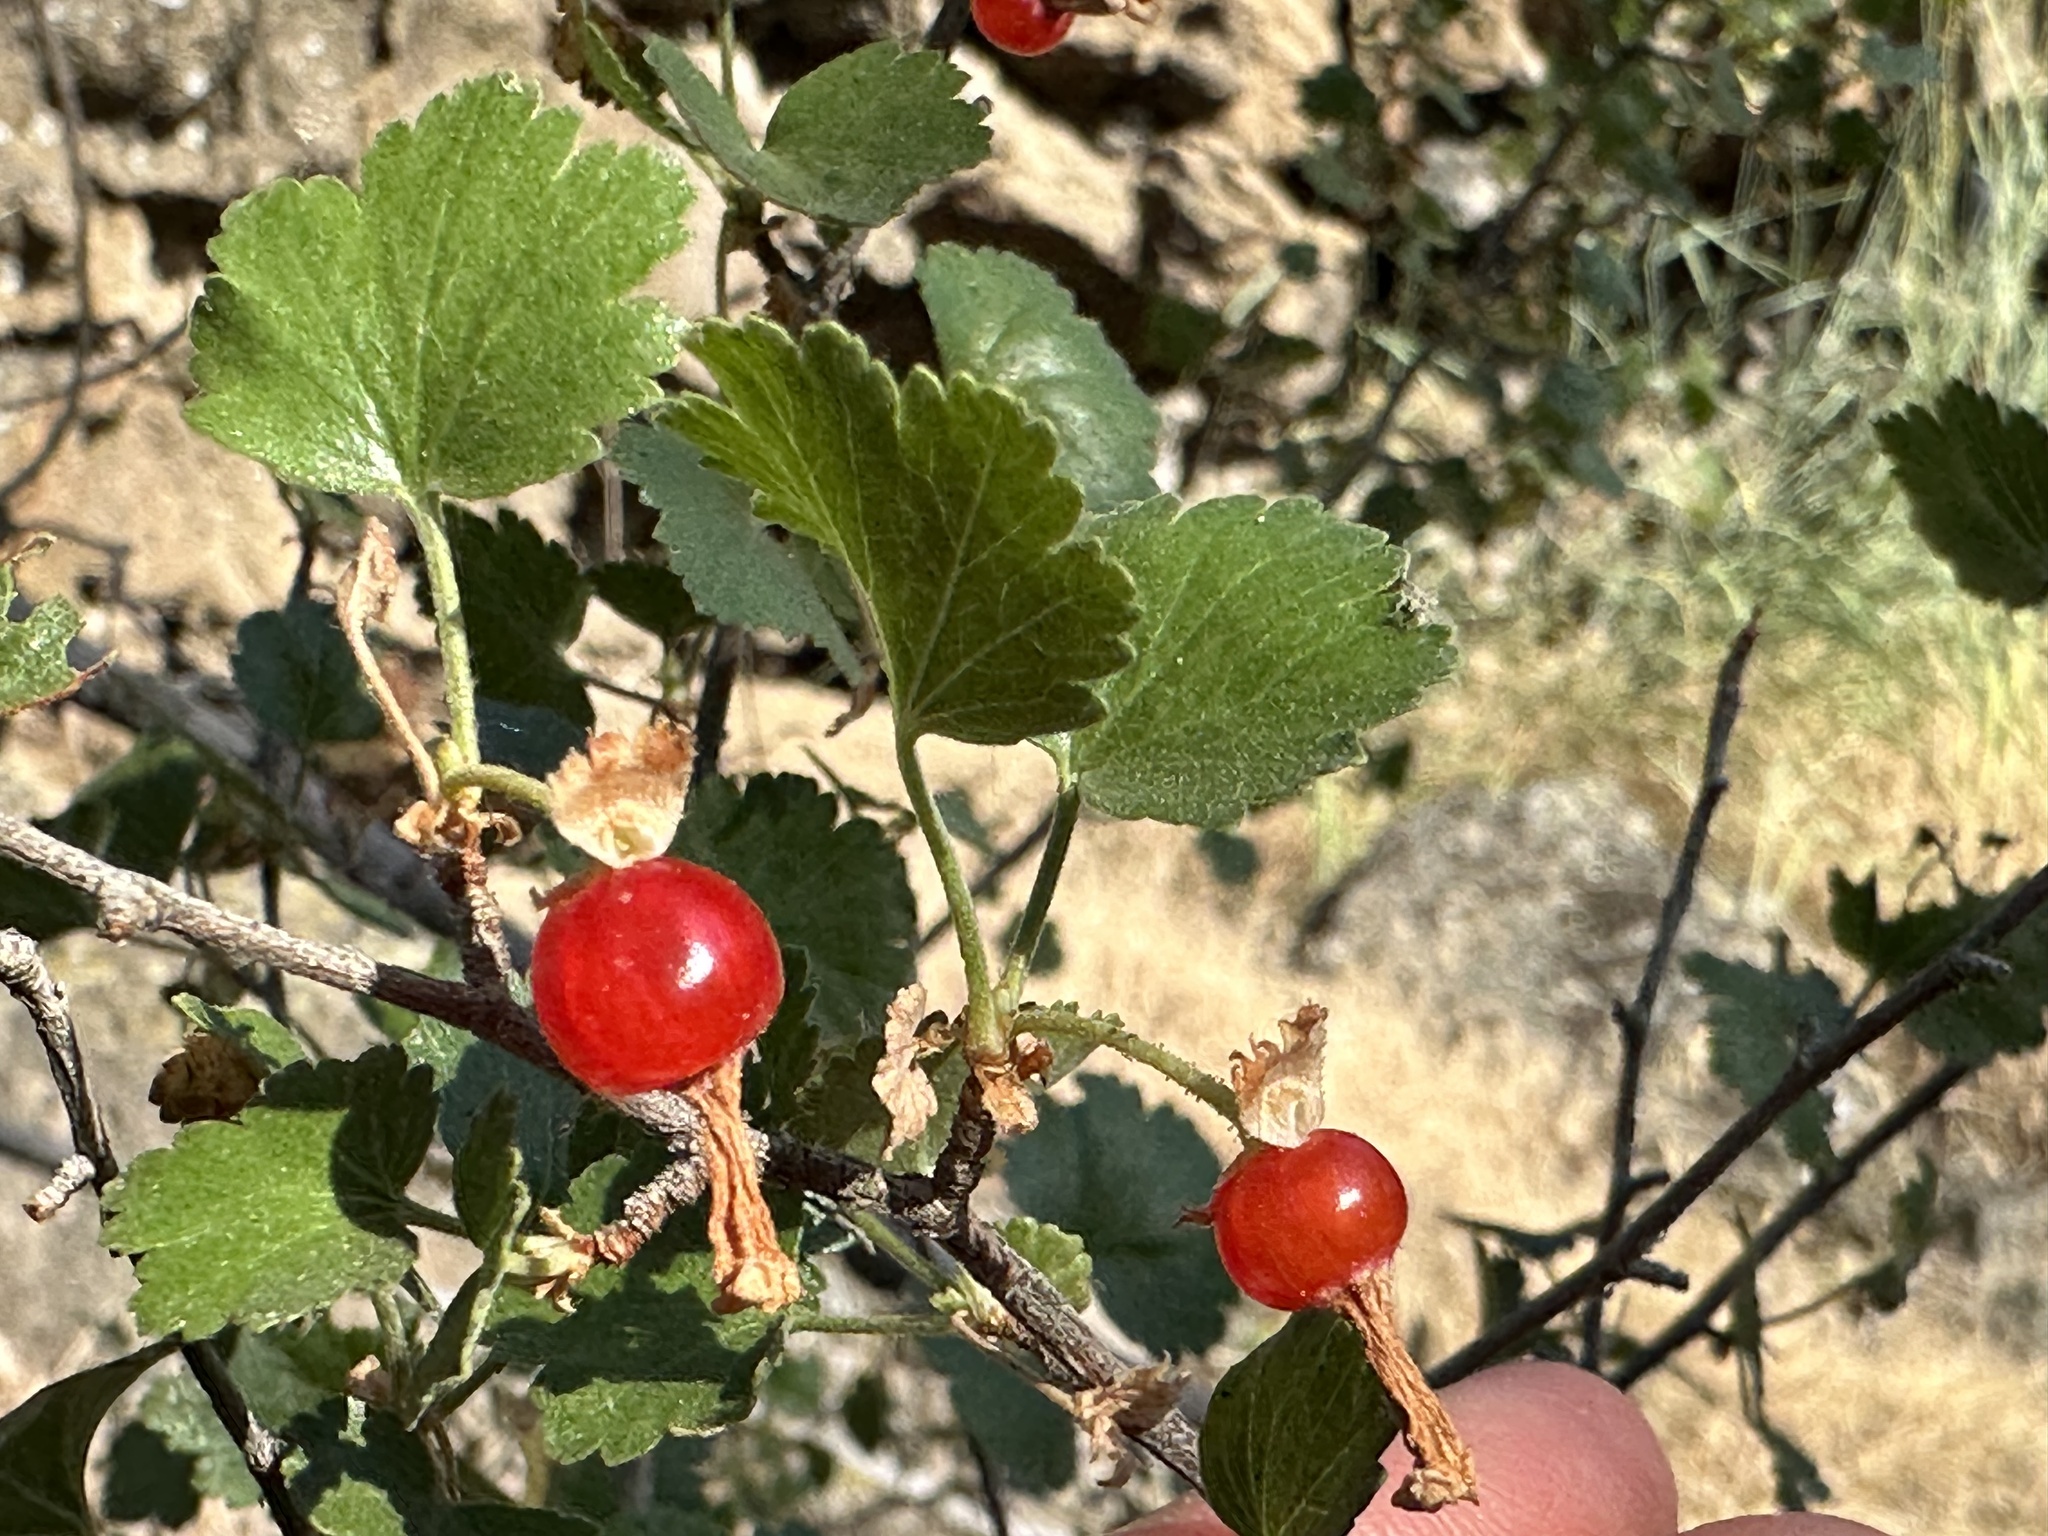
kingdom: Plantae
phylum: Tracheophyta
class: Magnoliopsida
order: Saxifragales
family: Grossulariaceae
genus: Ribes
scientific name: Ribes cereum
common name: Wax currant
